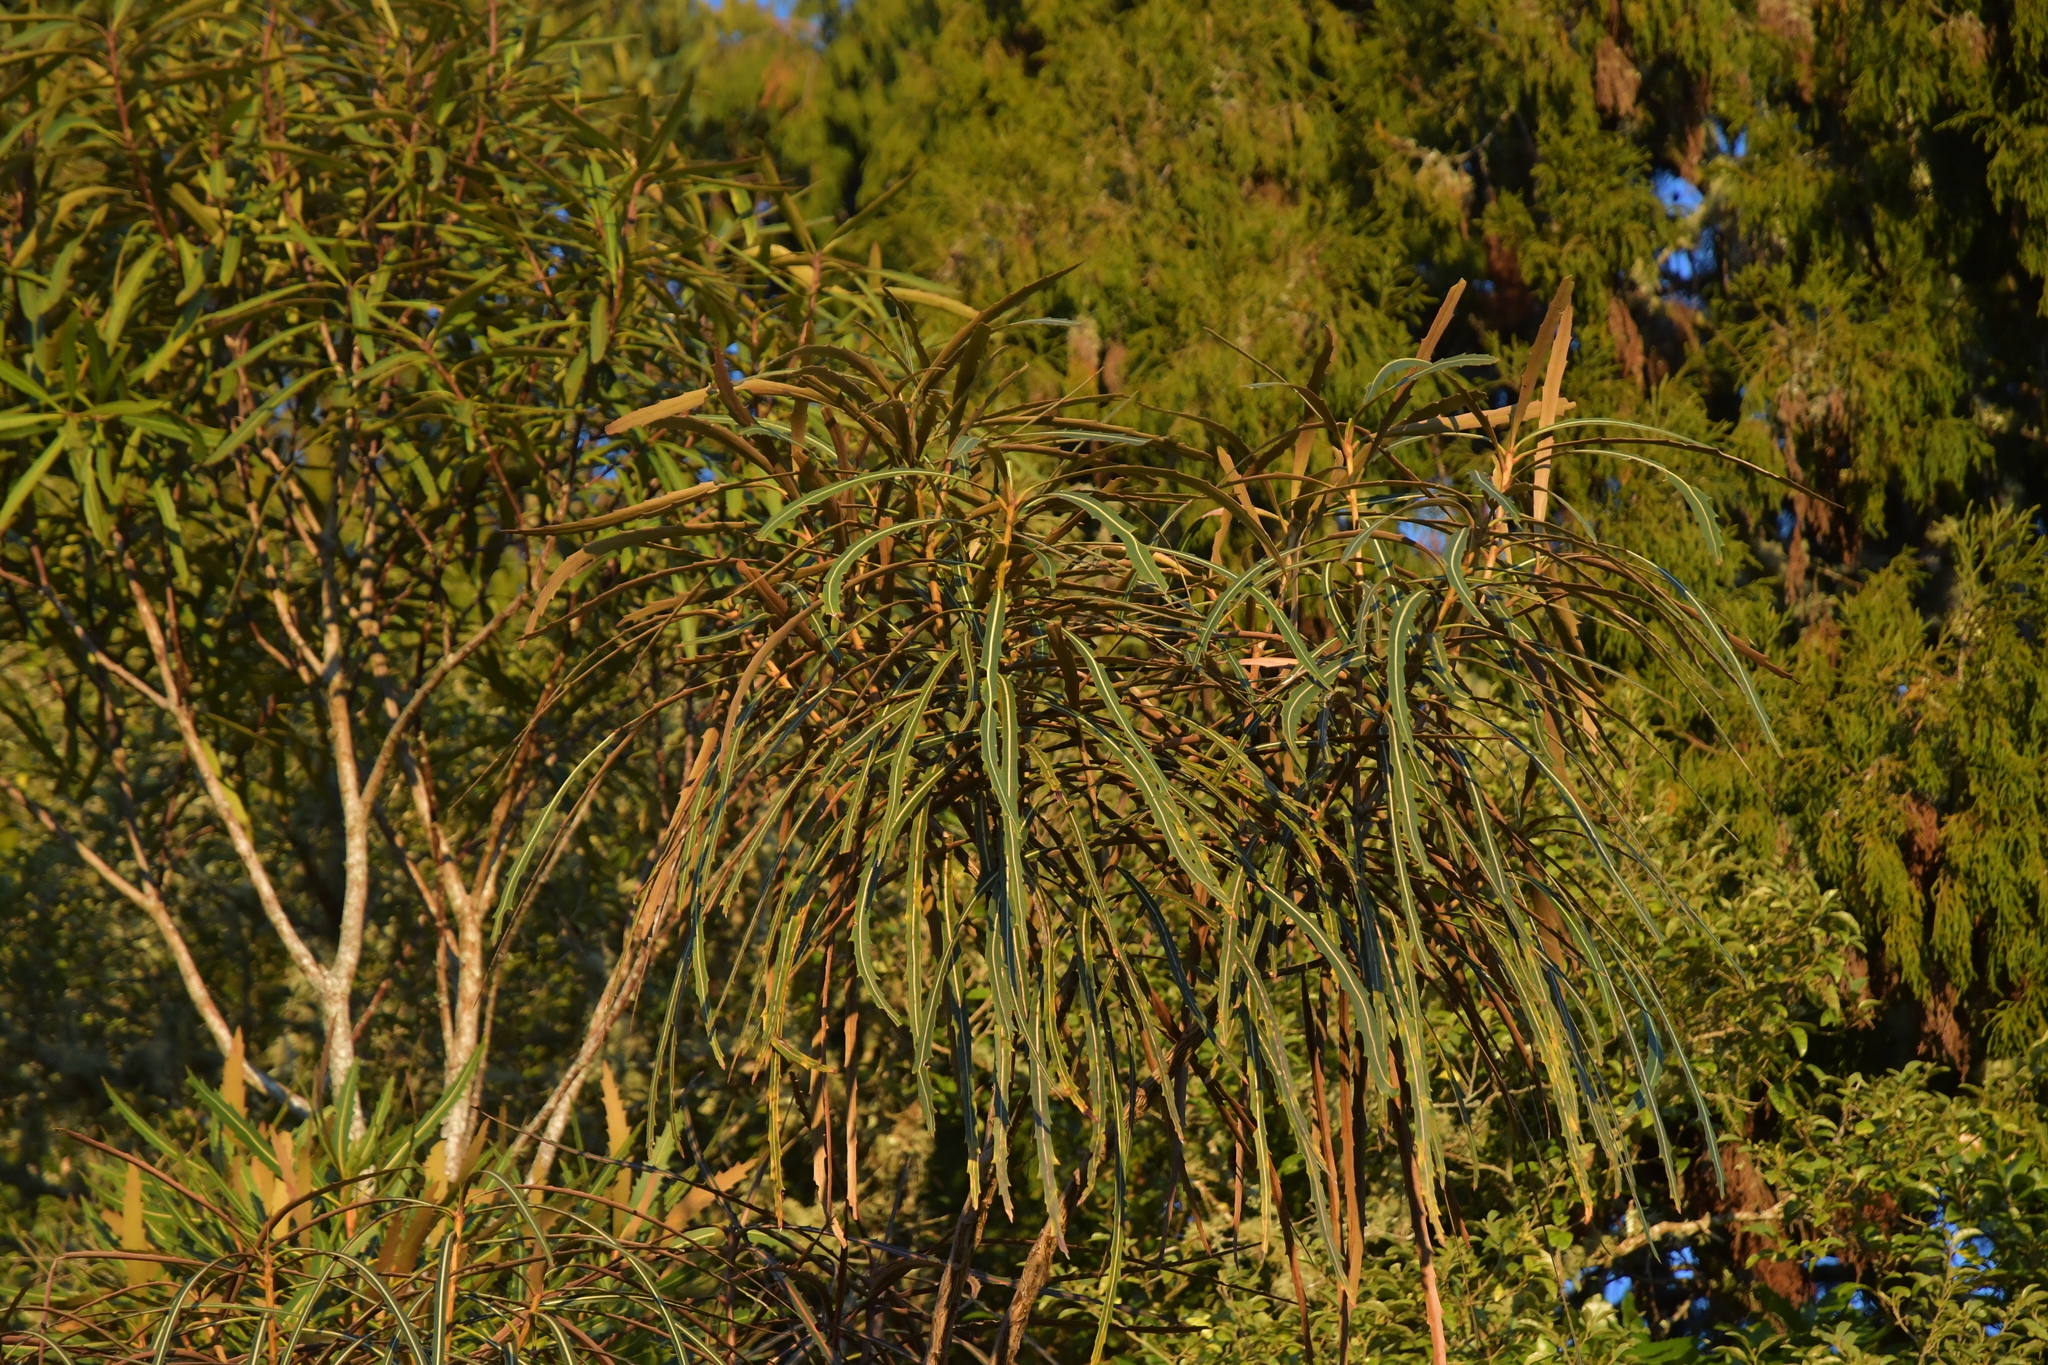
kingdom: Plantae
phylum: Tracheophyta
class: Magnoliopsida
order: Apiales
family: Araliaceae
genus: Pseudopanax
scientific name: Pseudopanax crassifolius
